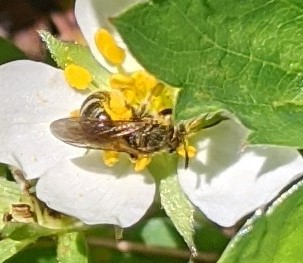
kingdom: Animalia
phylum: Arthropoda
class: Insecta
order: Hymenoptera
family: Halictidae
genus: Halictus
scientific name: Halictus confusus
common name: Southern bronze furrow bee
